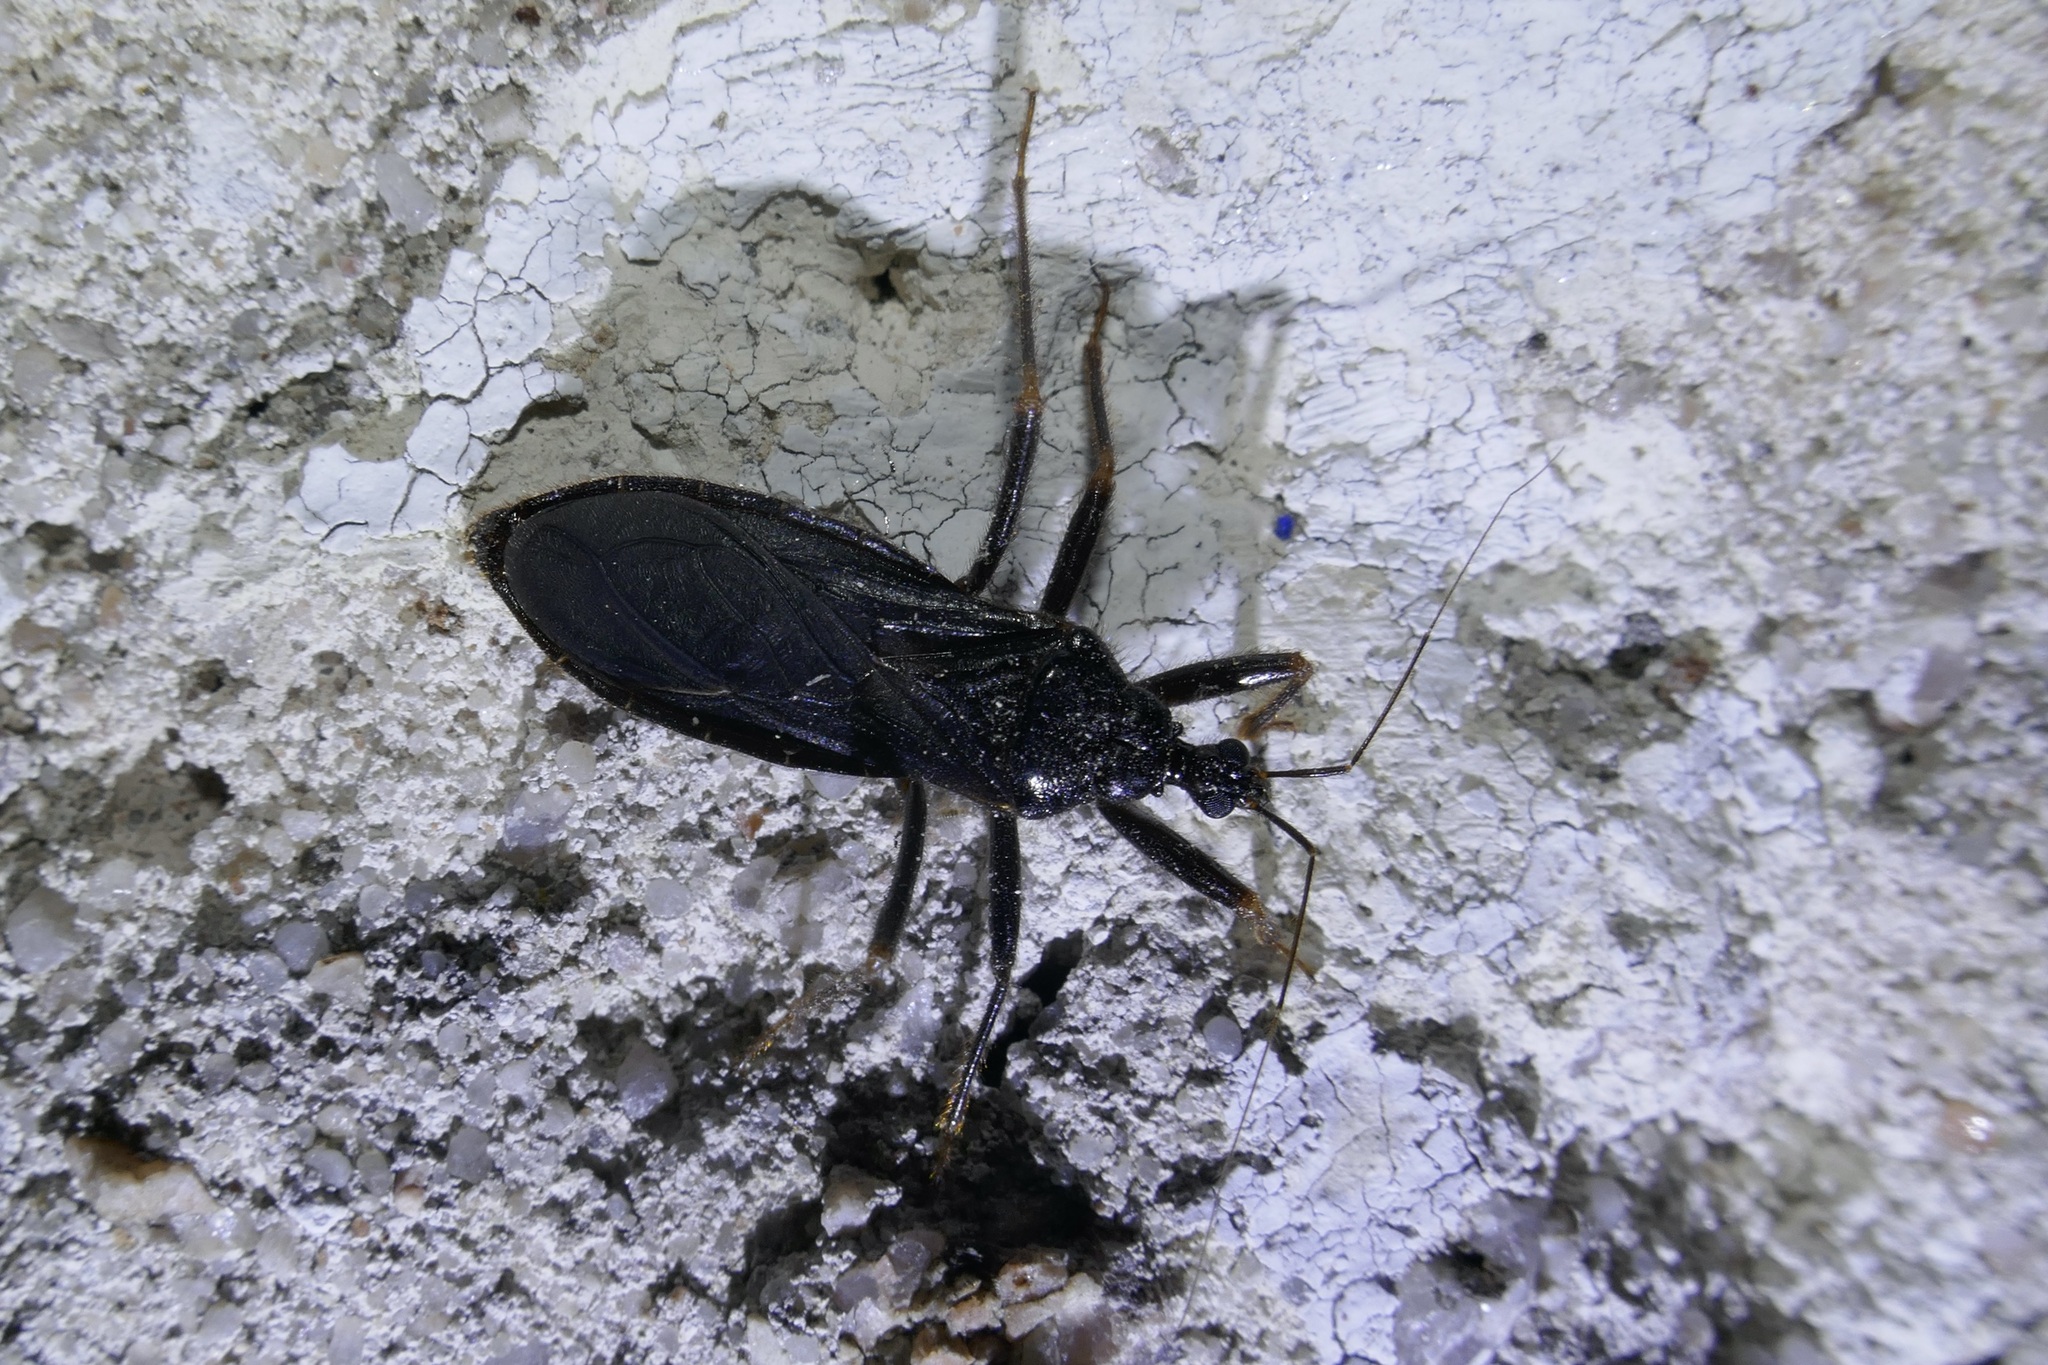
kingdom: Animalia
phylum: Arthropoda
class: Insecta
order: Hemiptera
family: Reduviidae
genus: Reduvius
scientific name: Reduvius personatus
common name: Masked hunter
